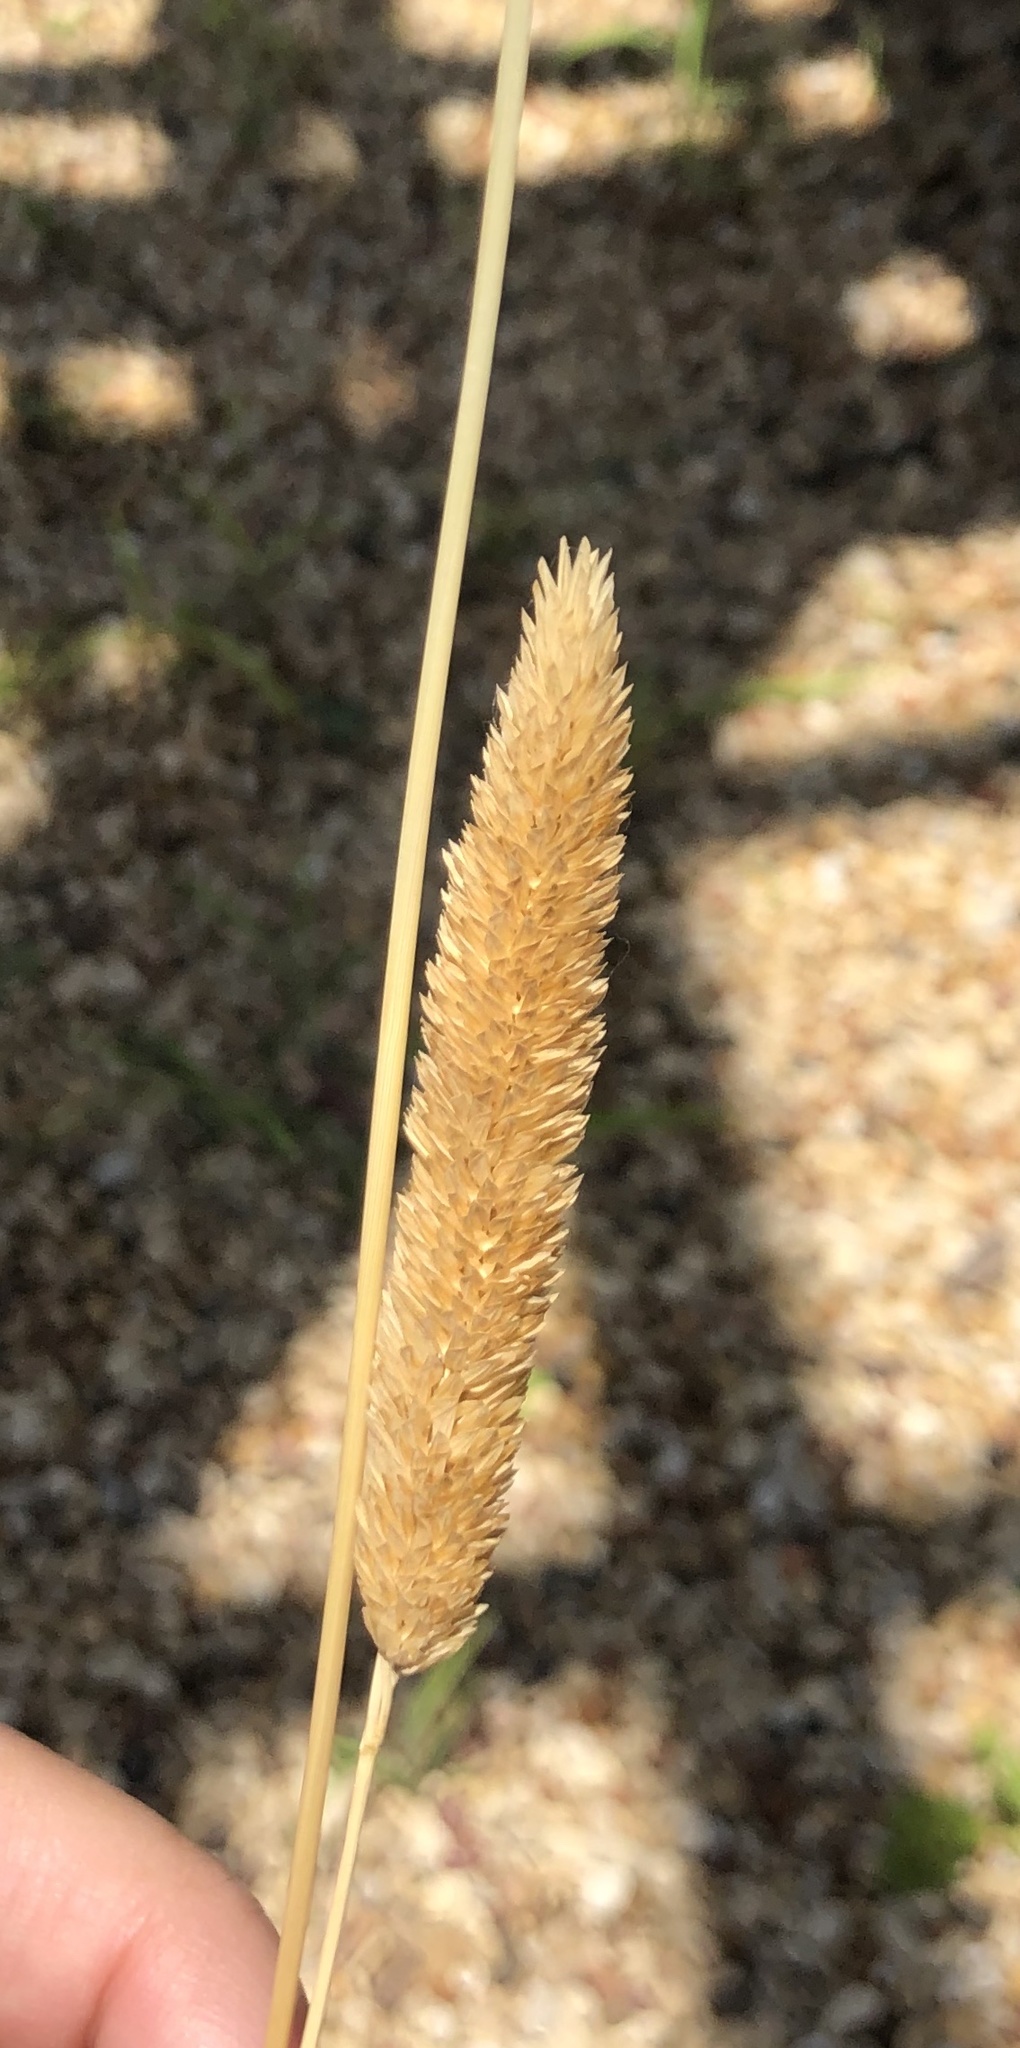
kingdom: Plantae
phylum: Tracheophyta
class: Liliopsida
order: Poales
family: Poaceae
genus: Phalaris
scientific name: Phalaris caroliniana
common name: May grass
